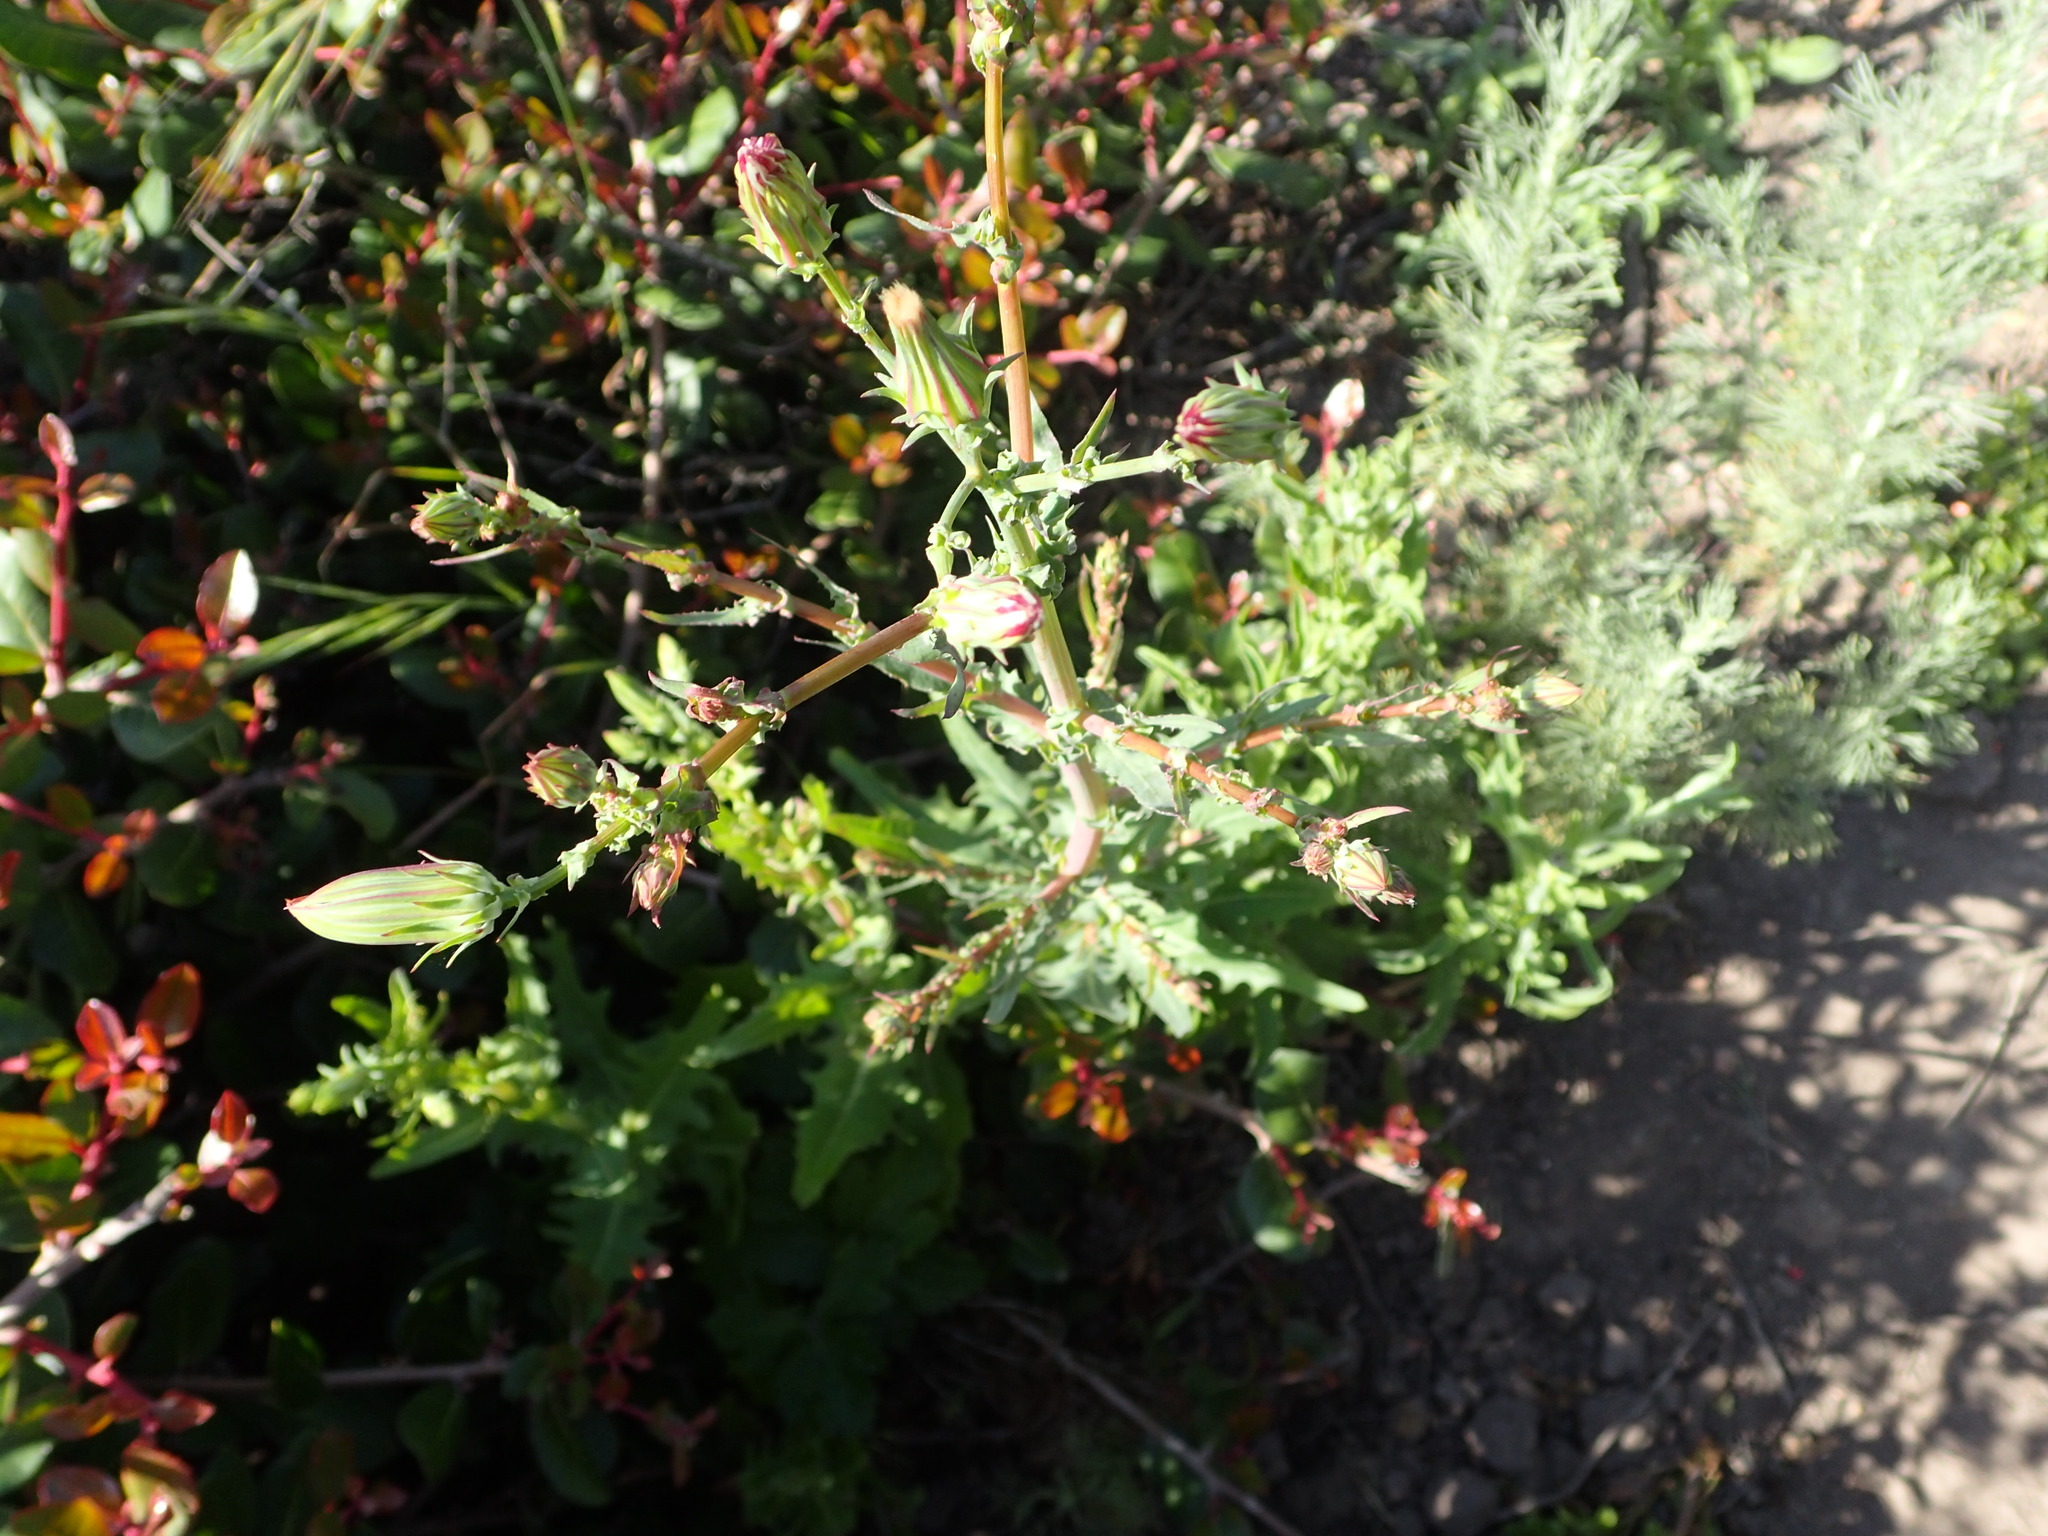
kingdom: Plantae
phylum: Tracheophyta
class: Magnoliopsida
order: Asterales
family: Asteraceae
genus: Rafinesquia
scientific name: Rafinesquia californica
